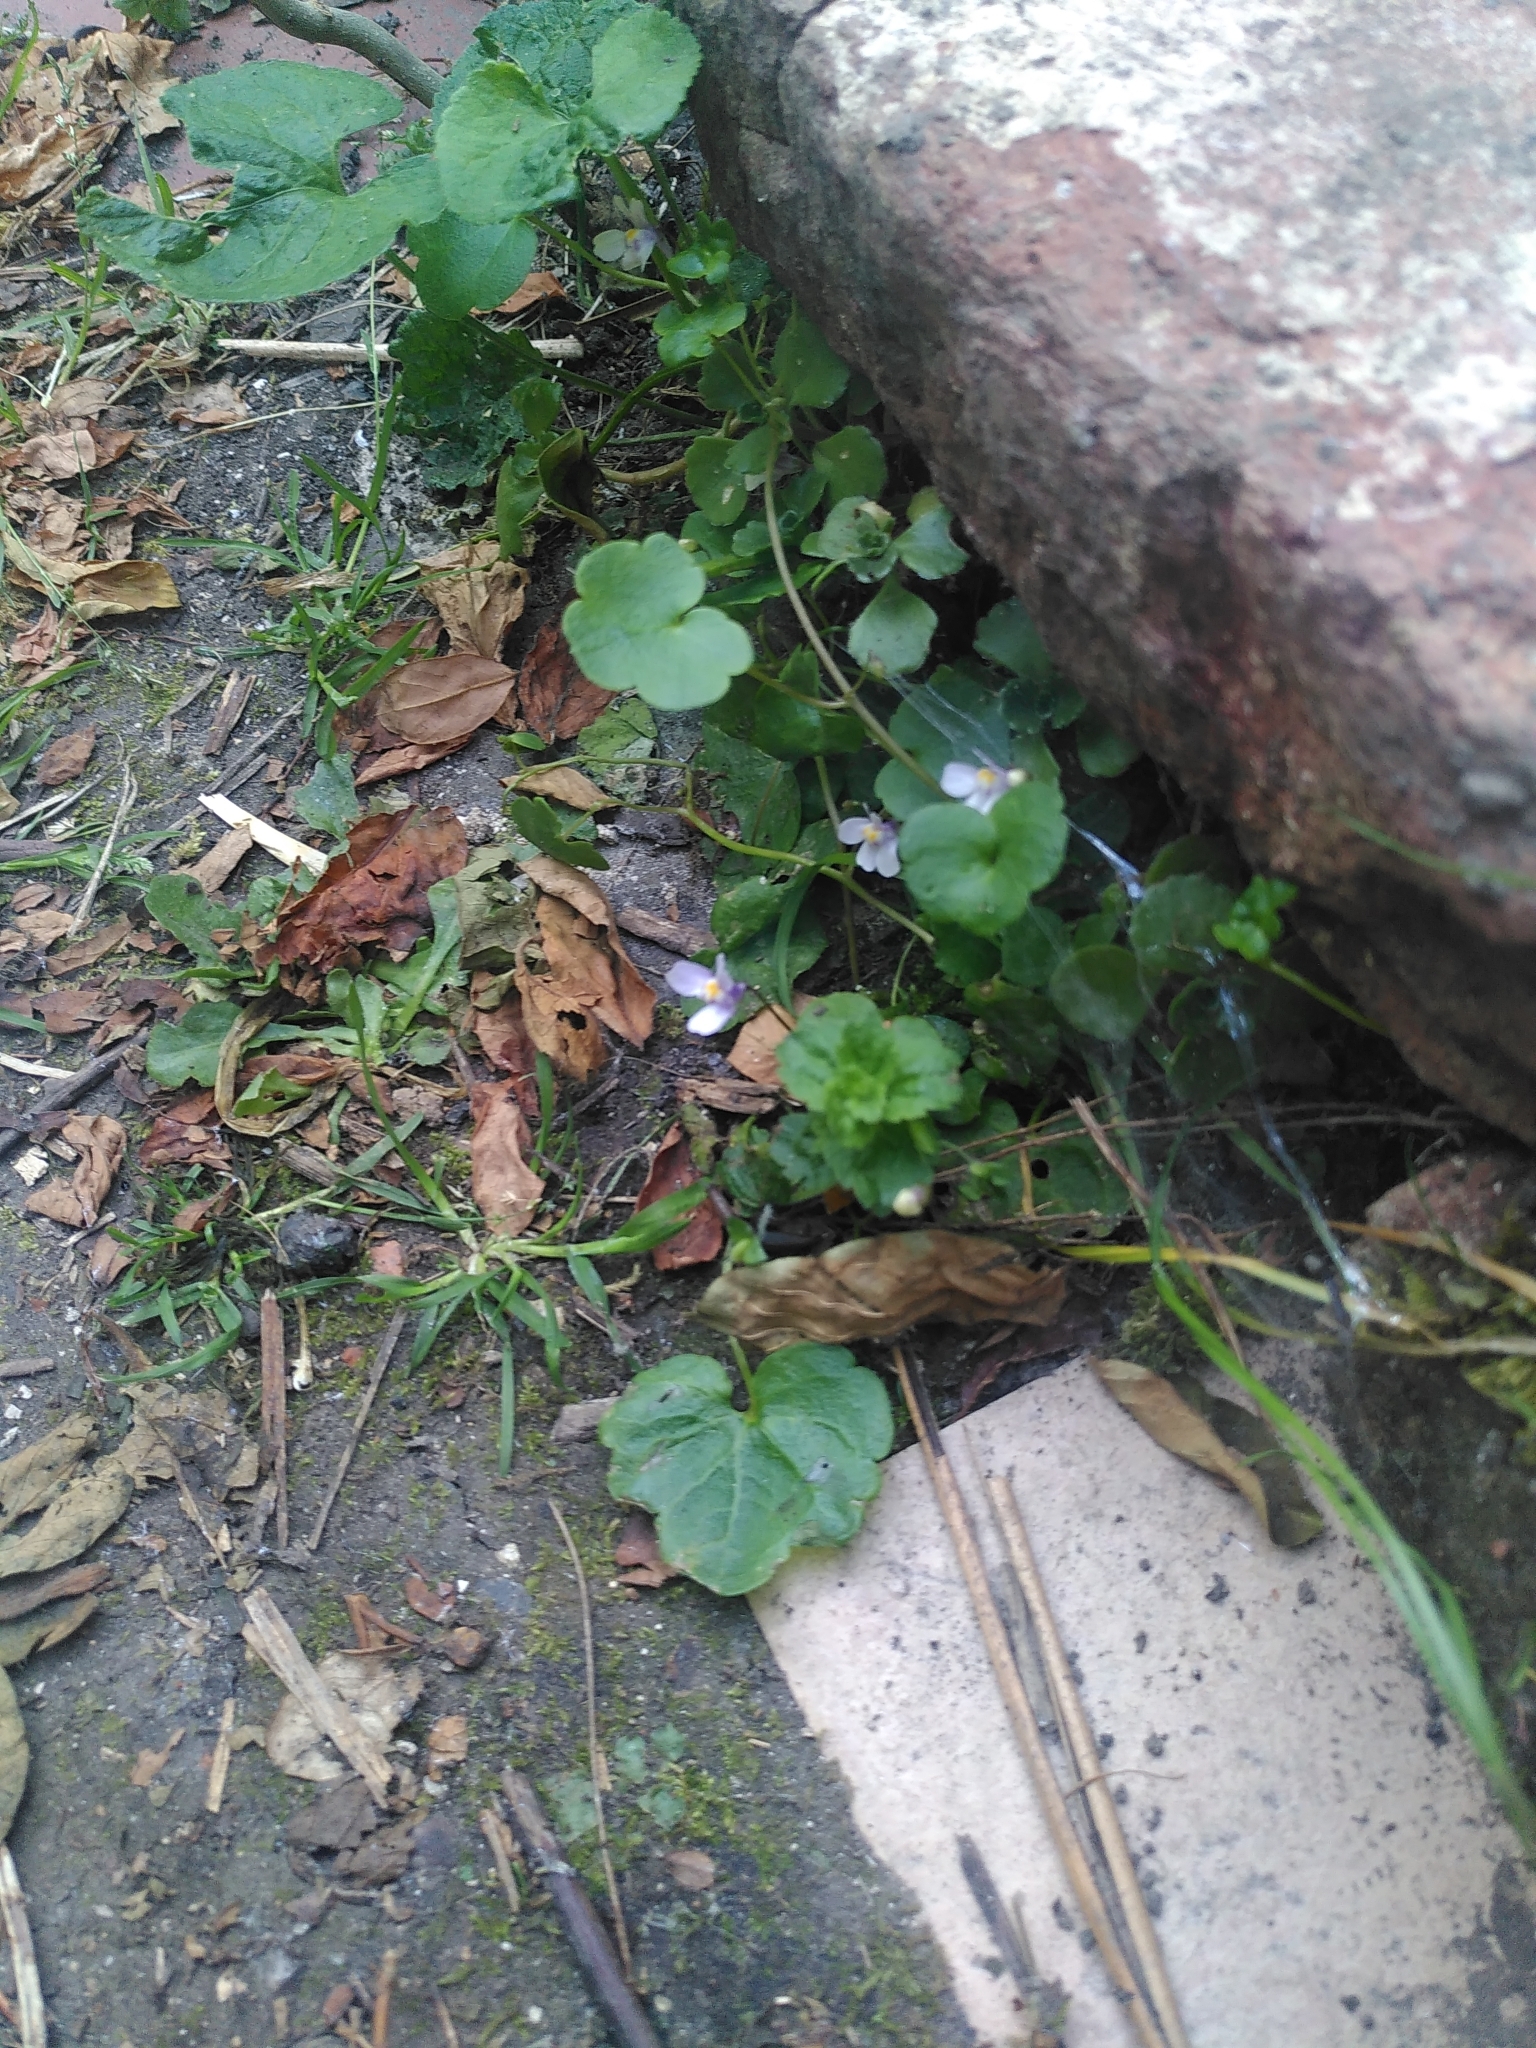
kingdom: Plantae
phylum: Tracheophyta
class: Magnoliopsida
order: Lamiales
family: Plantaginaceae
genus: Cymbalaria
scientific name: Cymbalaria muralis
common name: Ivy-leaved toadflax
